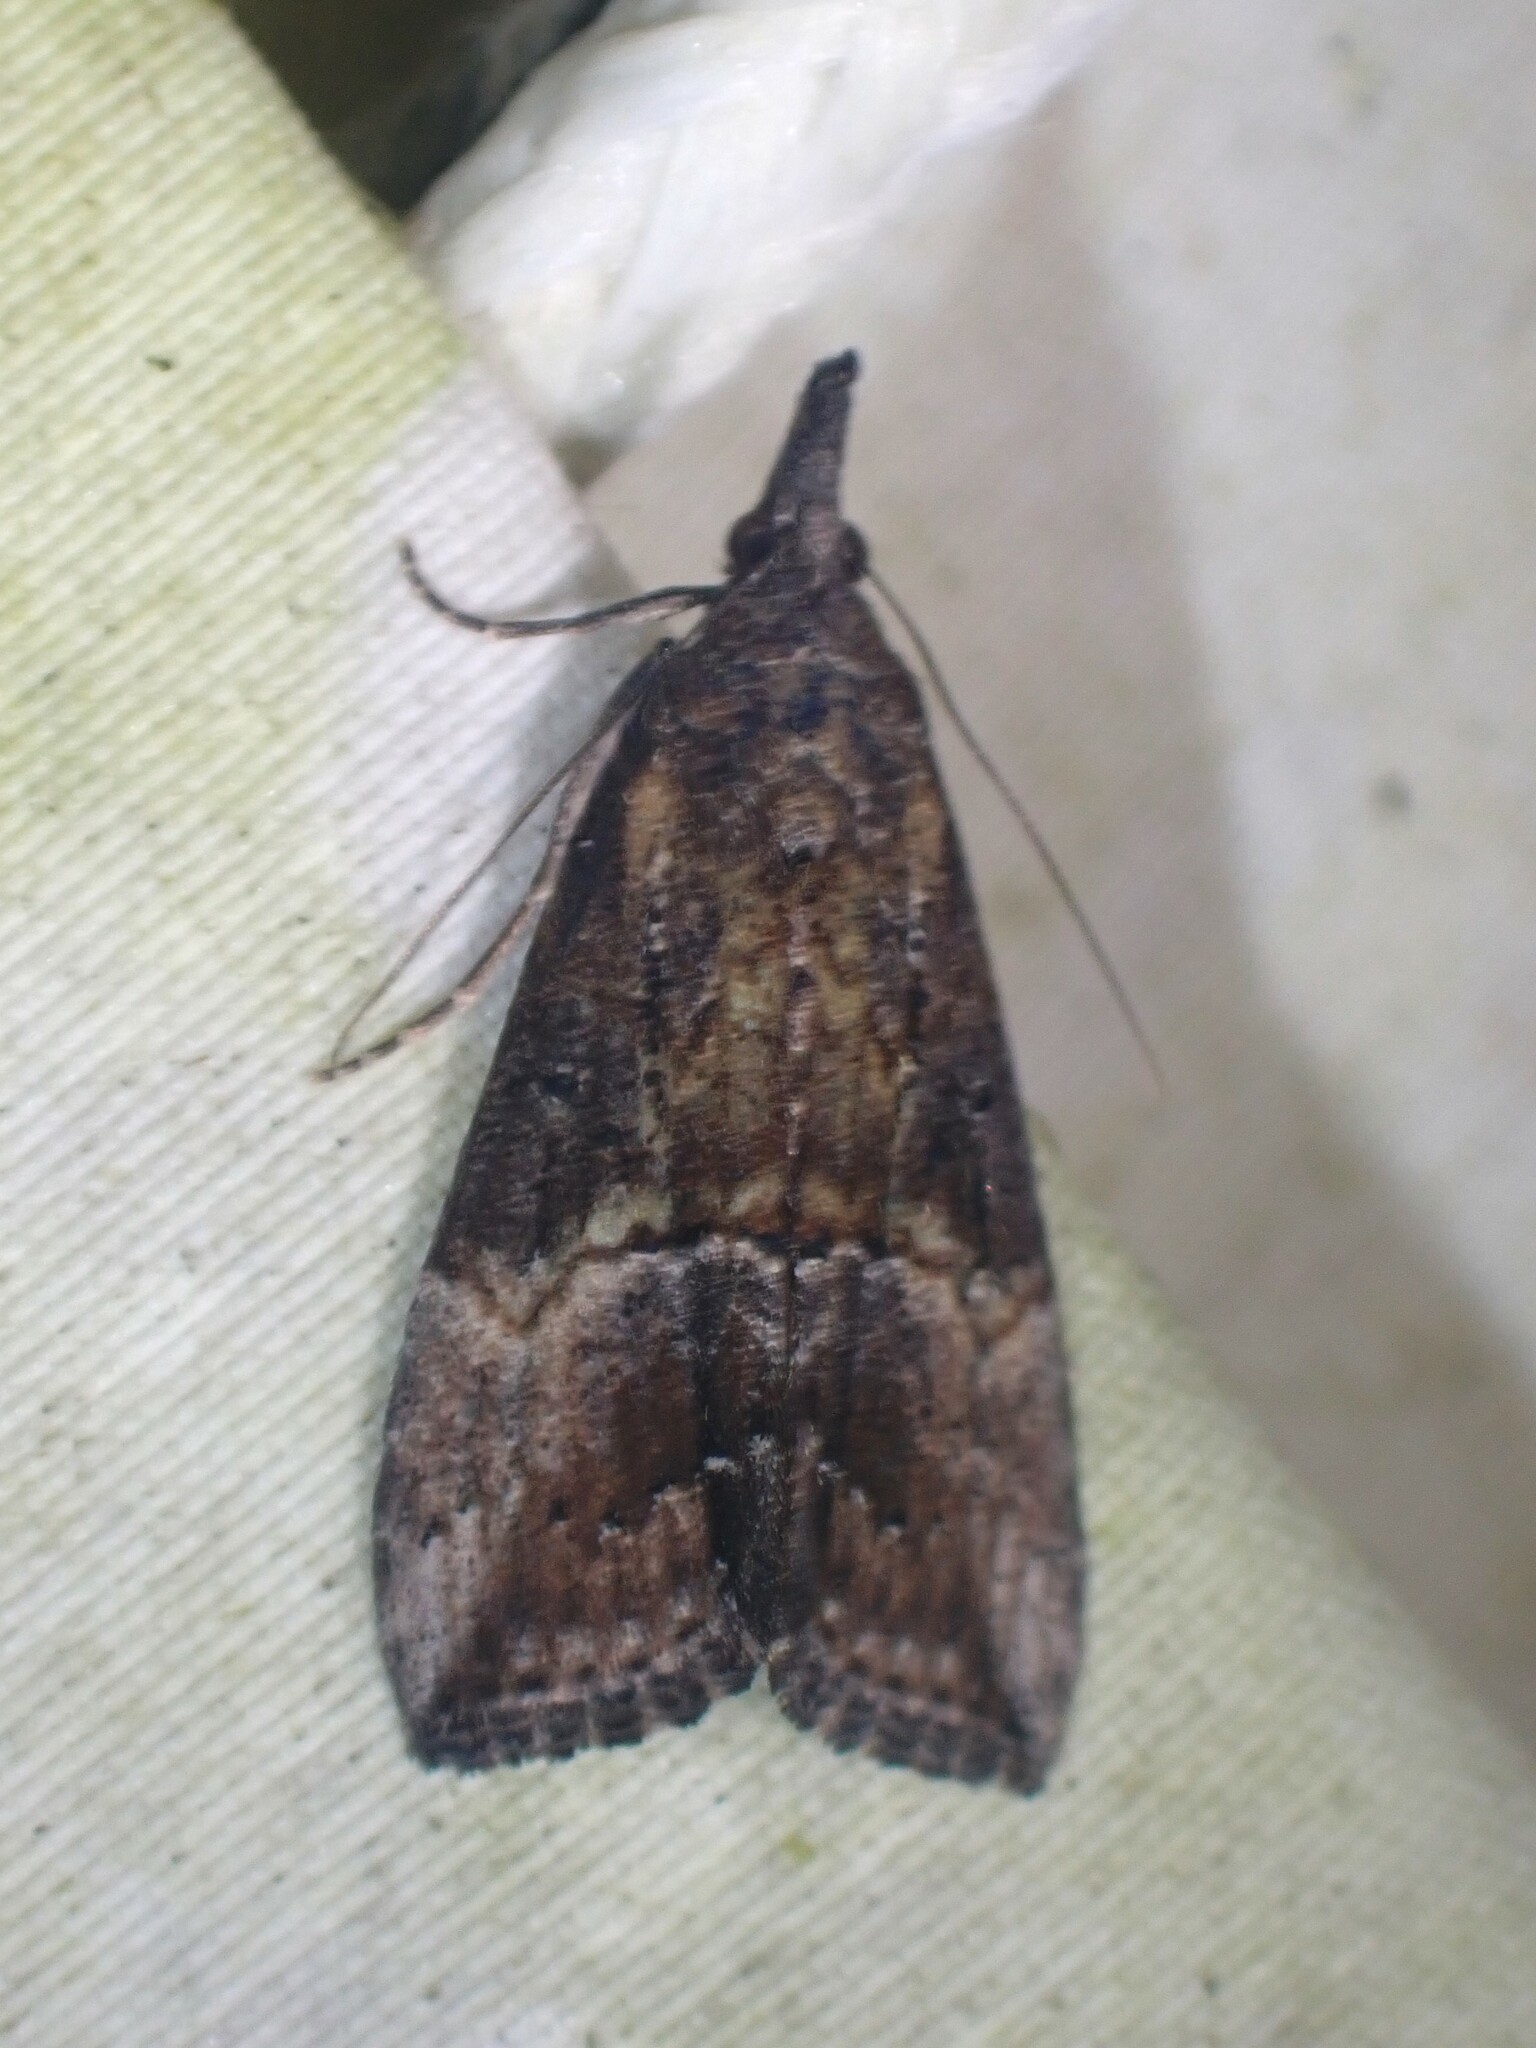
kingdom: Animalia
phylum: Arthropoda
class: Insecta
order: Lepidoptera
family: Erebidae
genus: Hypena
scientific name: Hypena scabra
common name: Green cloverworm
